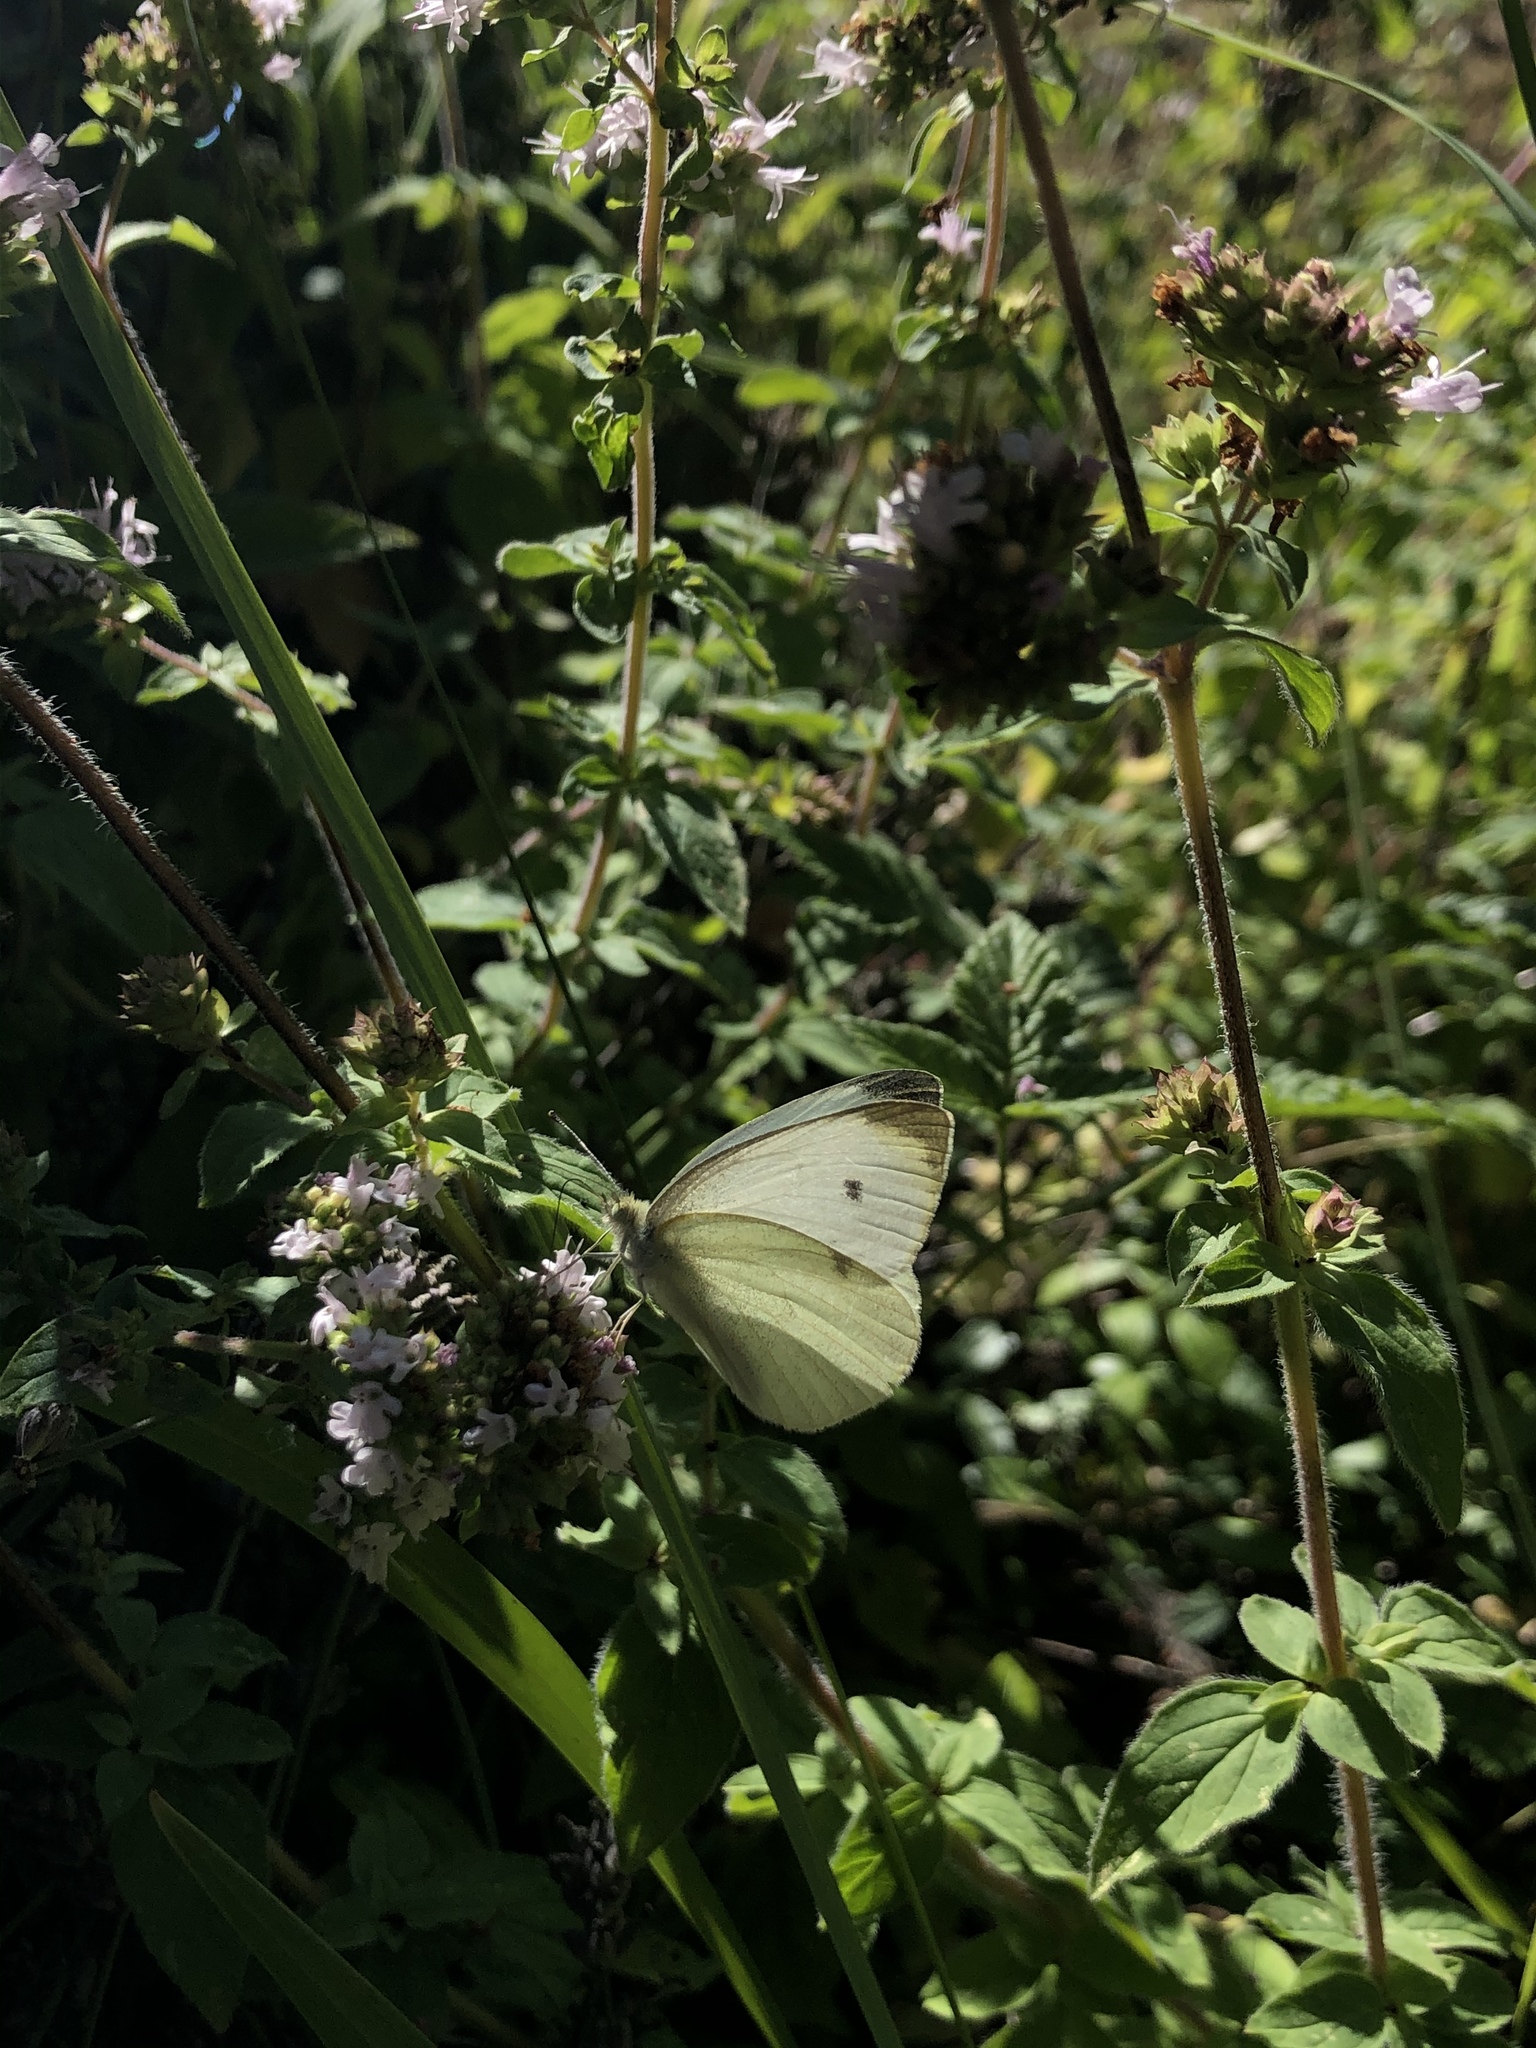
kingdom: Animalia
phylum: Arthropoda
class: Insecta
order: Lepidoptera
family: Pieridae
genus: Pieris
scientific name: Pieris rapae
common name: Small white
